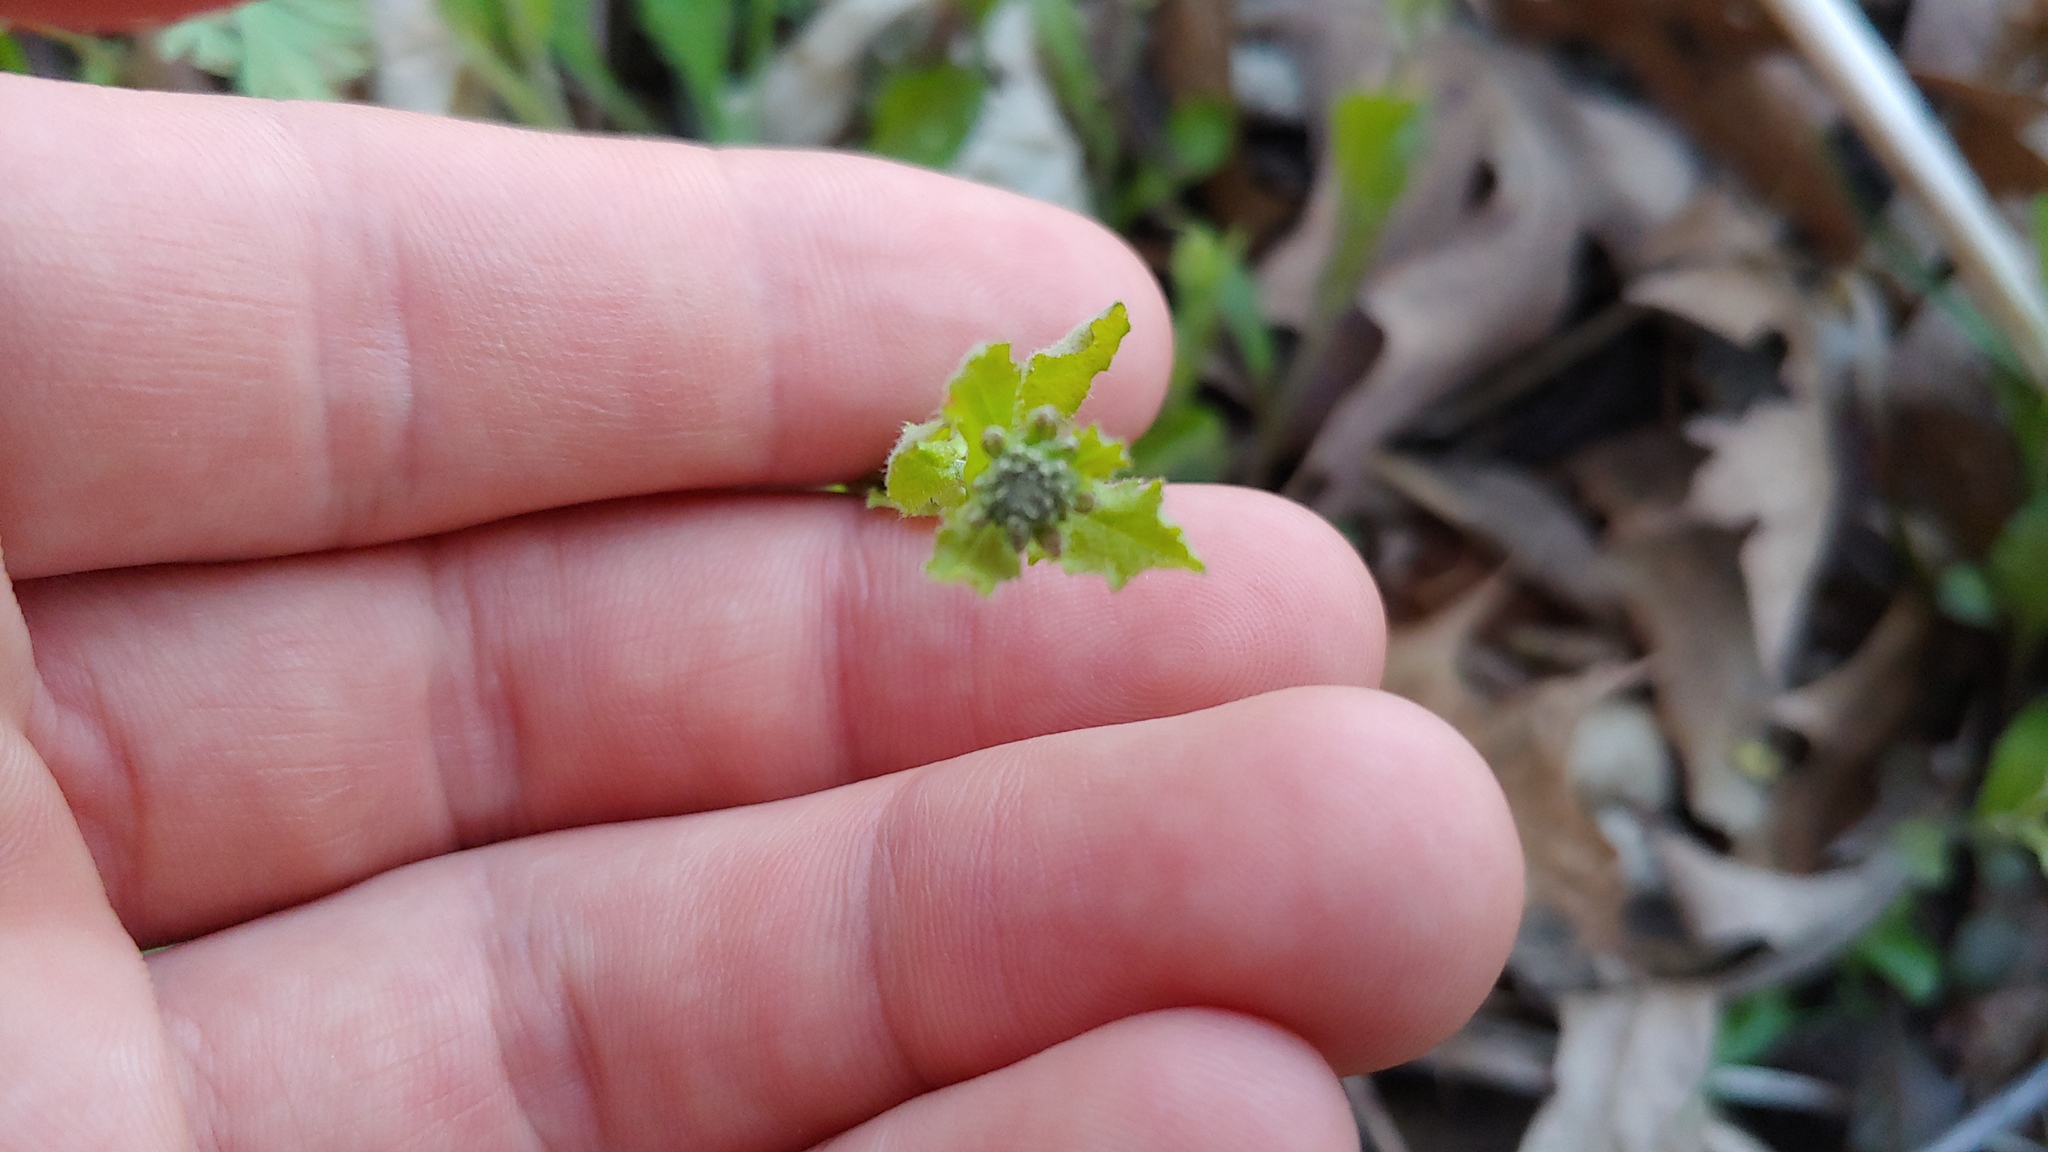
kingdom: Plantae
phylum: Tracheophyta
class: Magnoliopsida
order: Brassicales
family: Brassicaceae
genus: Borodinia
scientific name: Borodinia dentata
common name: Short's rockcress
